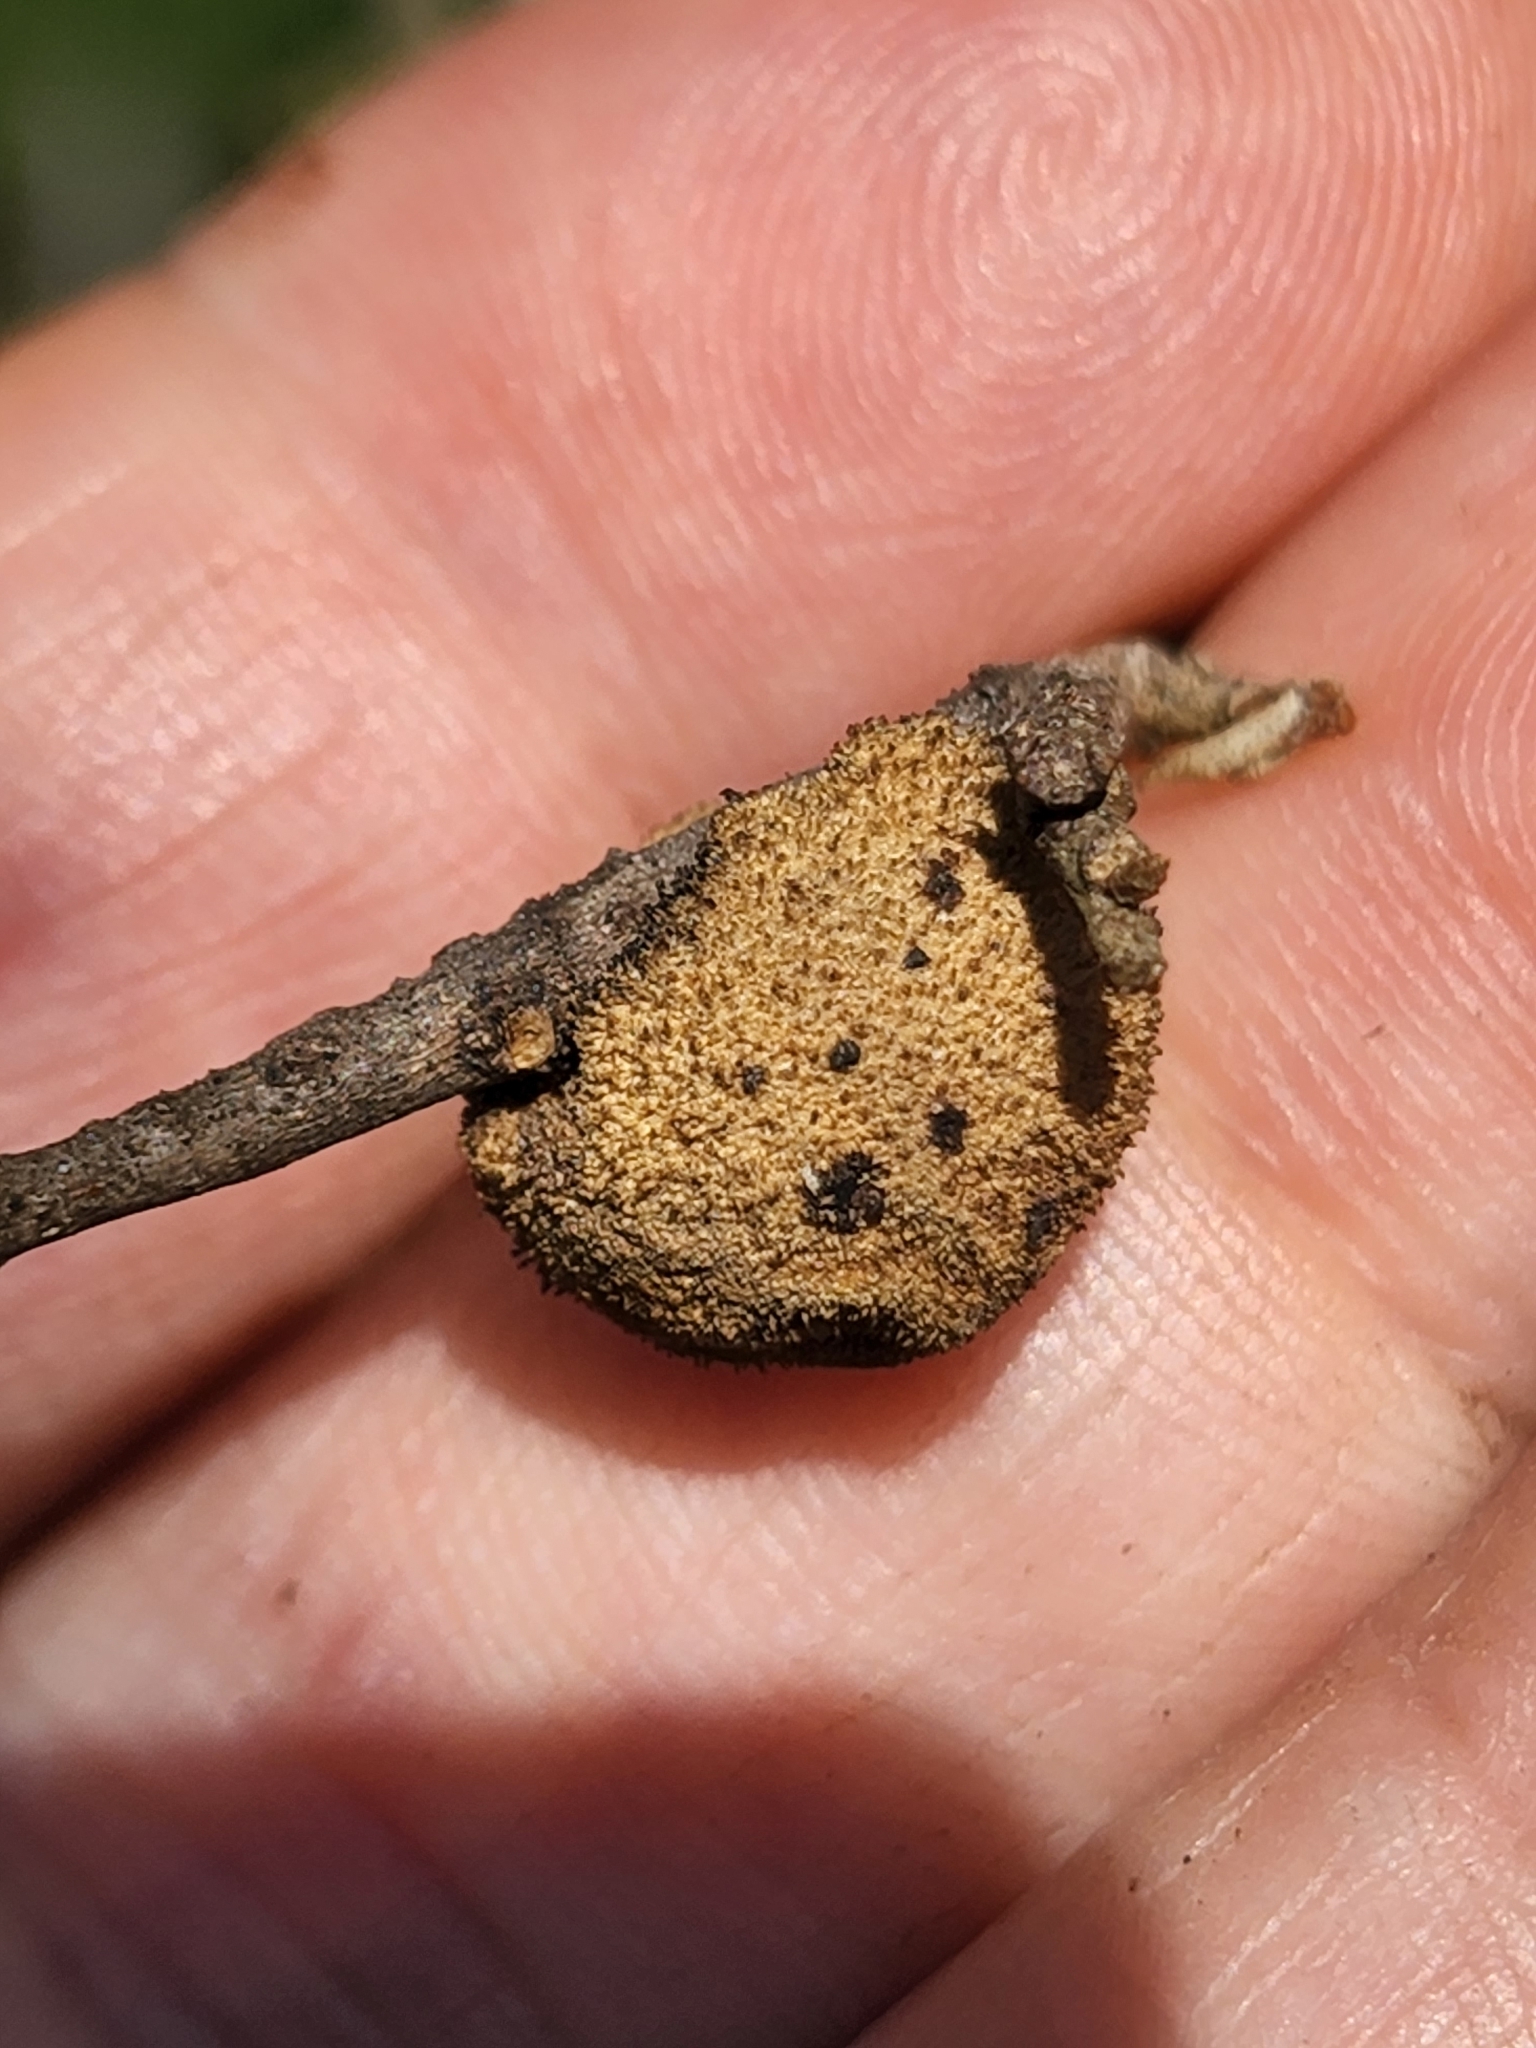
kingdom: Animalia
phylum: Arthropoda
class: Insecta
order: Hymenoptera
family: Cynipidae
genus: Disholcaspis
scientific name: Disholcaspis
